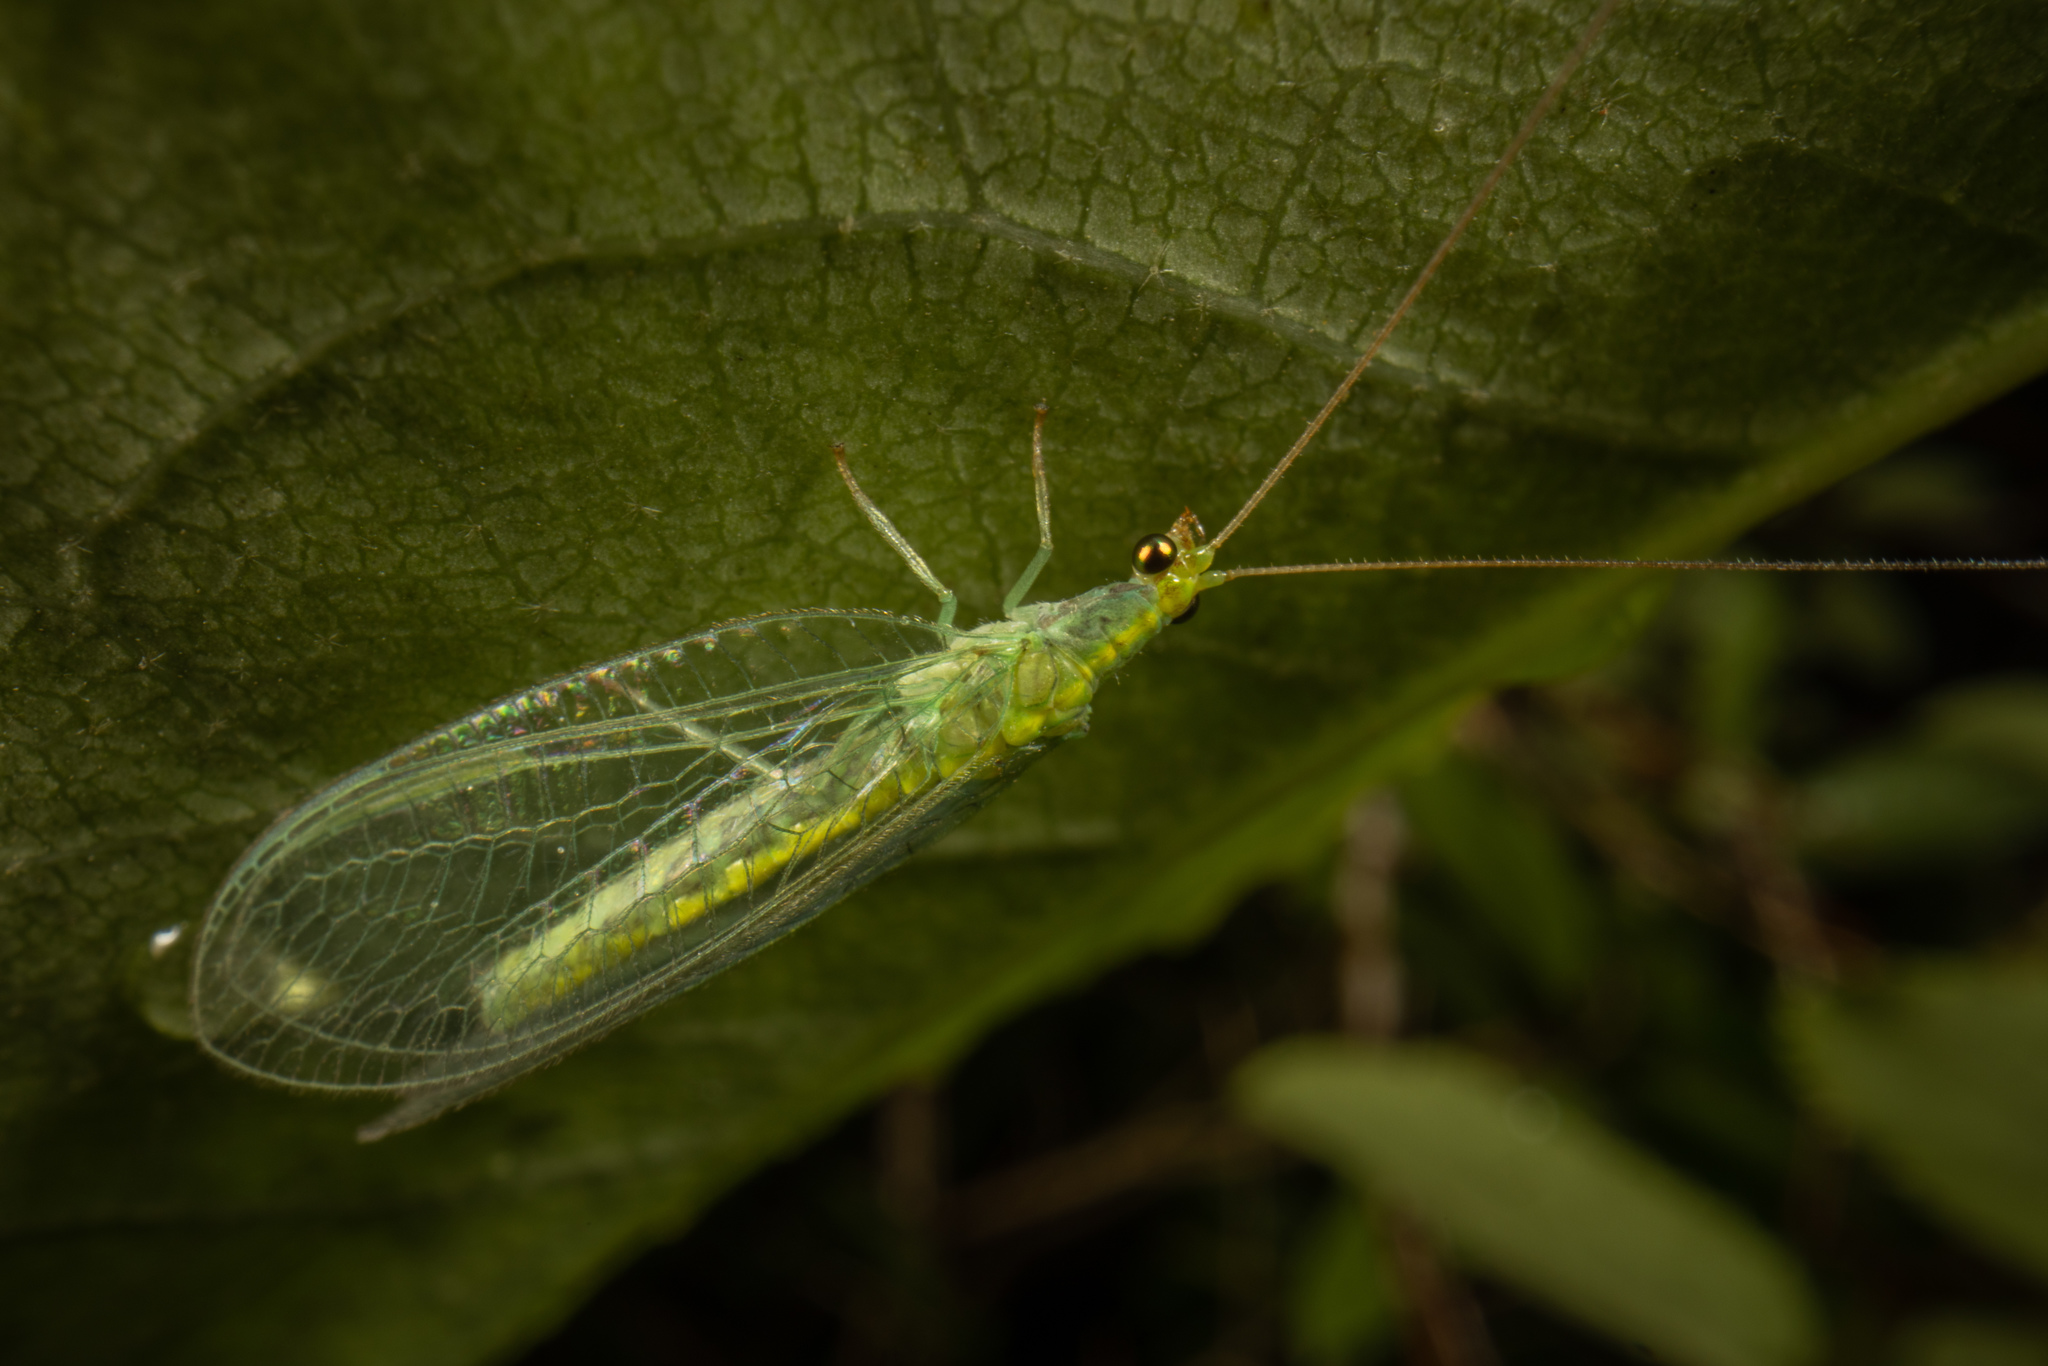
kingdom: Animalia
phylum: Arthropoda
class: Insecta
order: Neuroptera
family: Chrysopidae
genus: Mallada
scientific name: Mallada basalis
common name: Green lacewing
